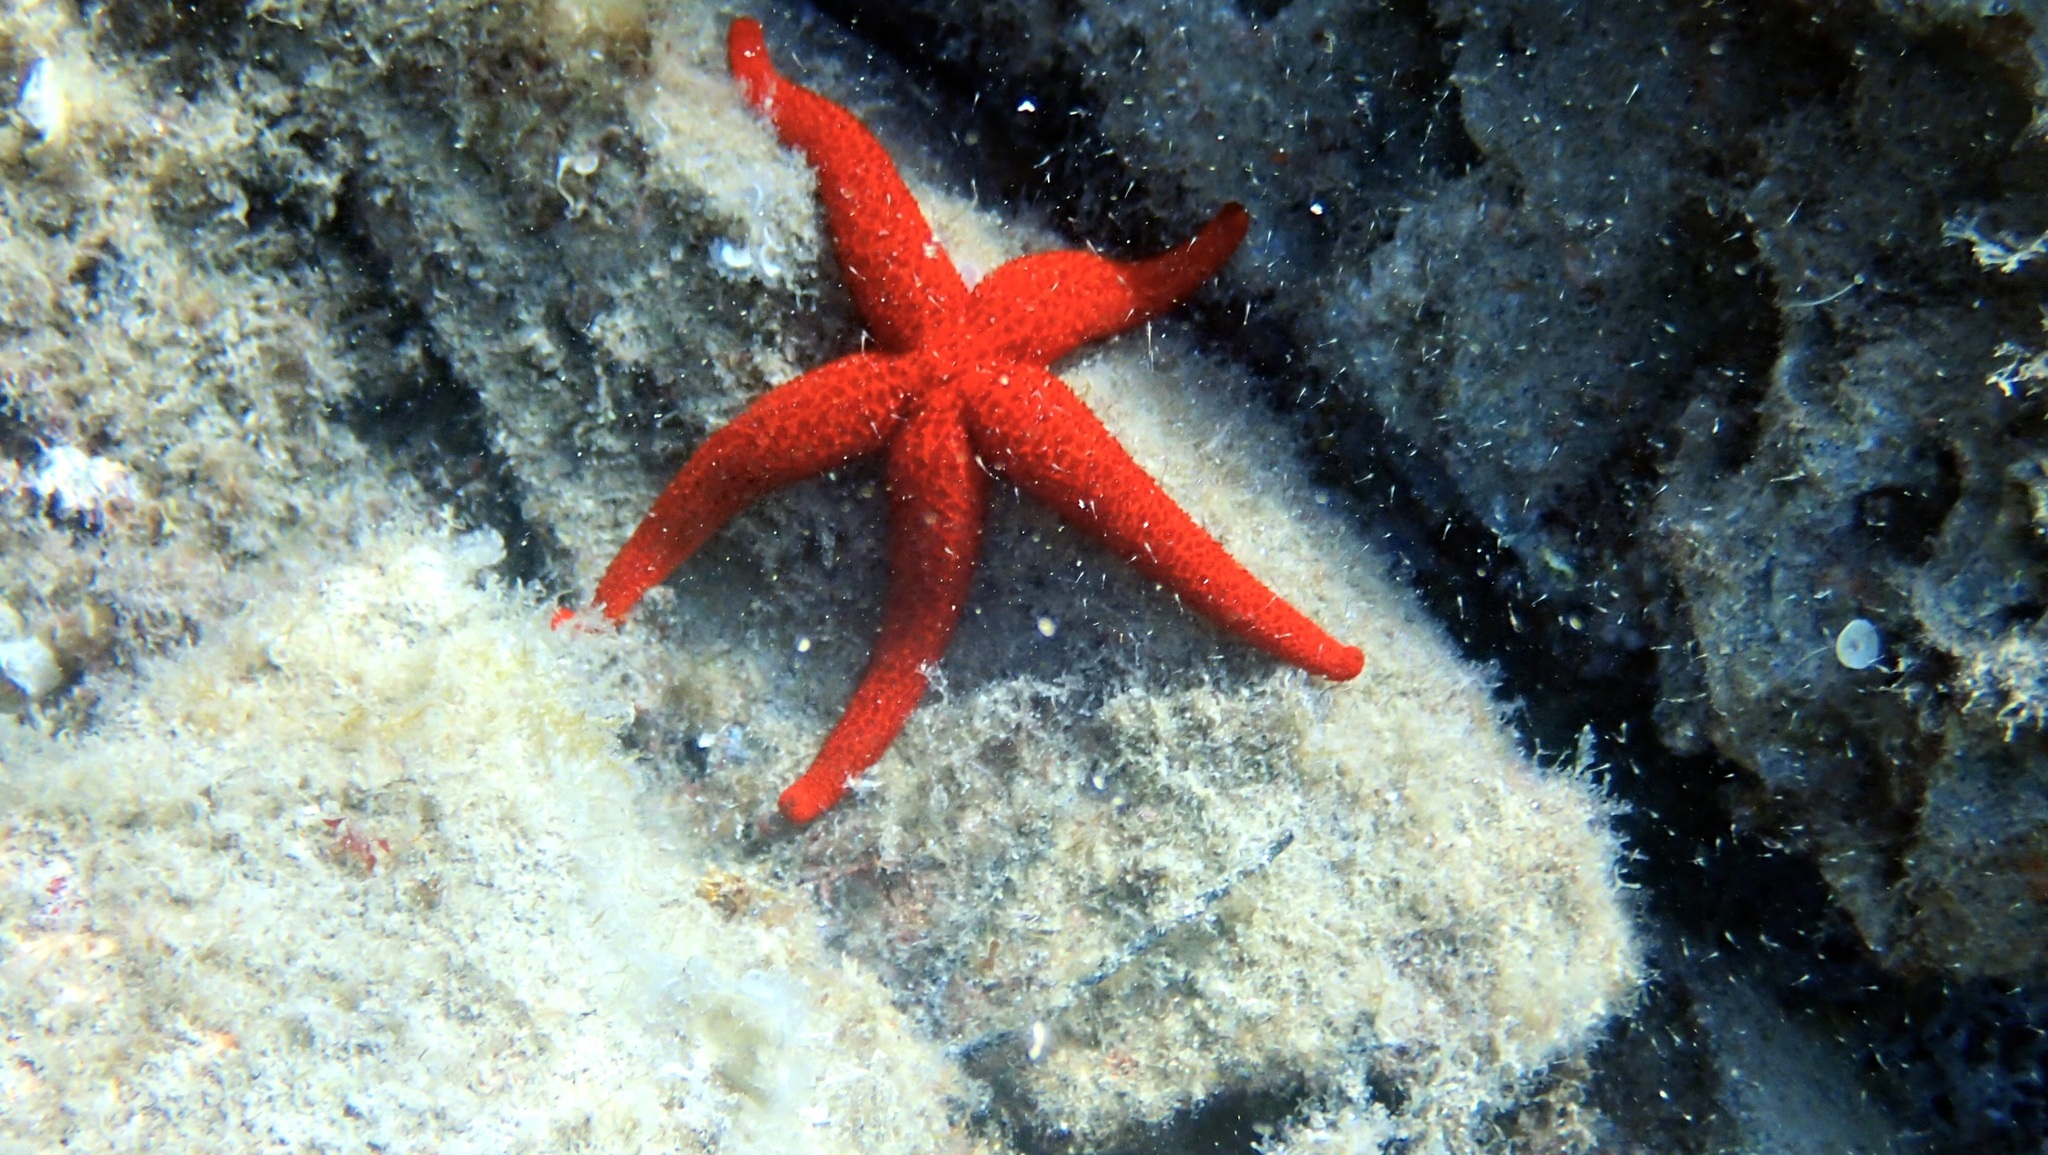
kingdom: Animalia
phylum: Echinodermata
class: Asteroidea
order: Spinulosida
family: Echinasteridae
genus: Echinaster
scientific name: Echinaster sepositus
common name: Red starfish
